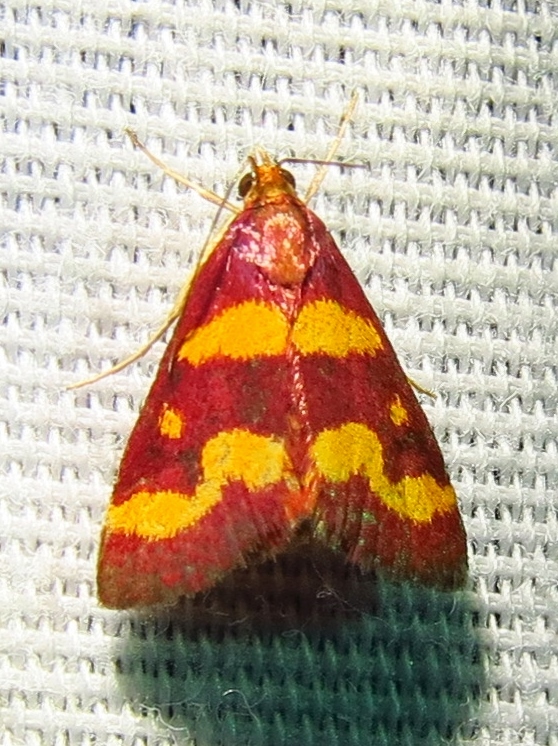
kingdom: Animalia
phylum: Arthropoda
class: Insecta
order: Lepidoptera
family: Crambidae
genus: Pyrausta
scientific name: Pyrausta tyralis
